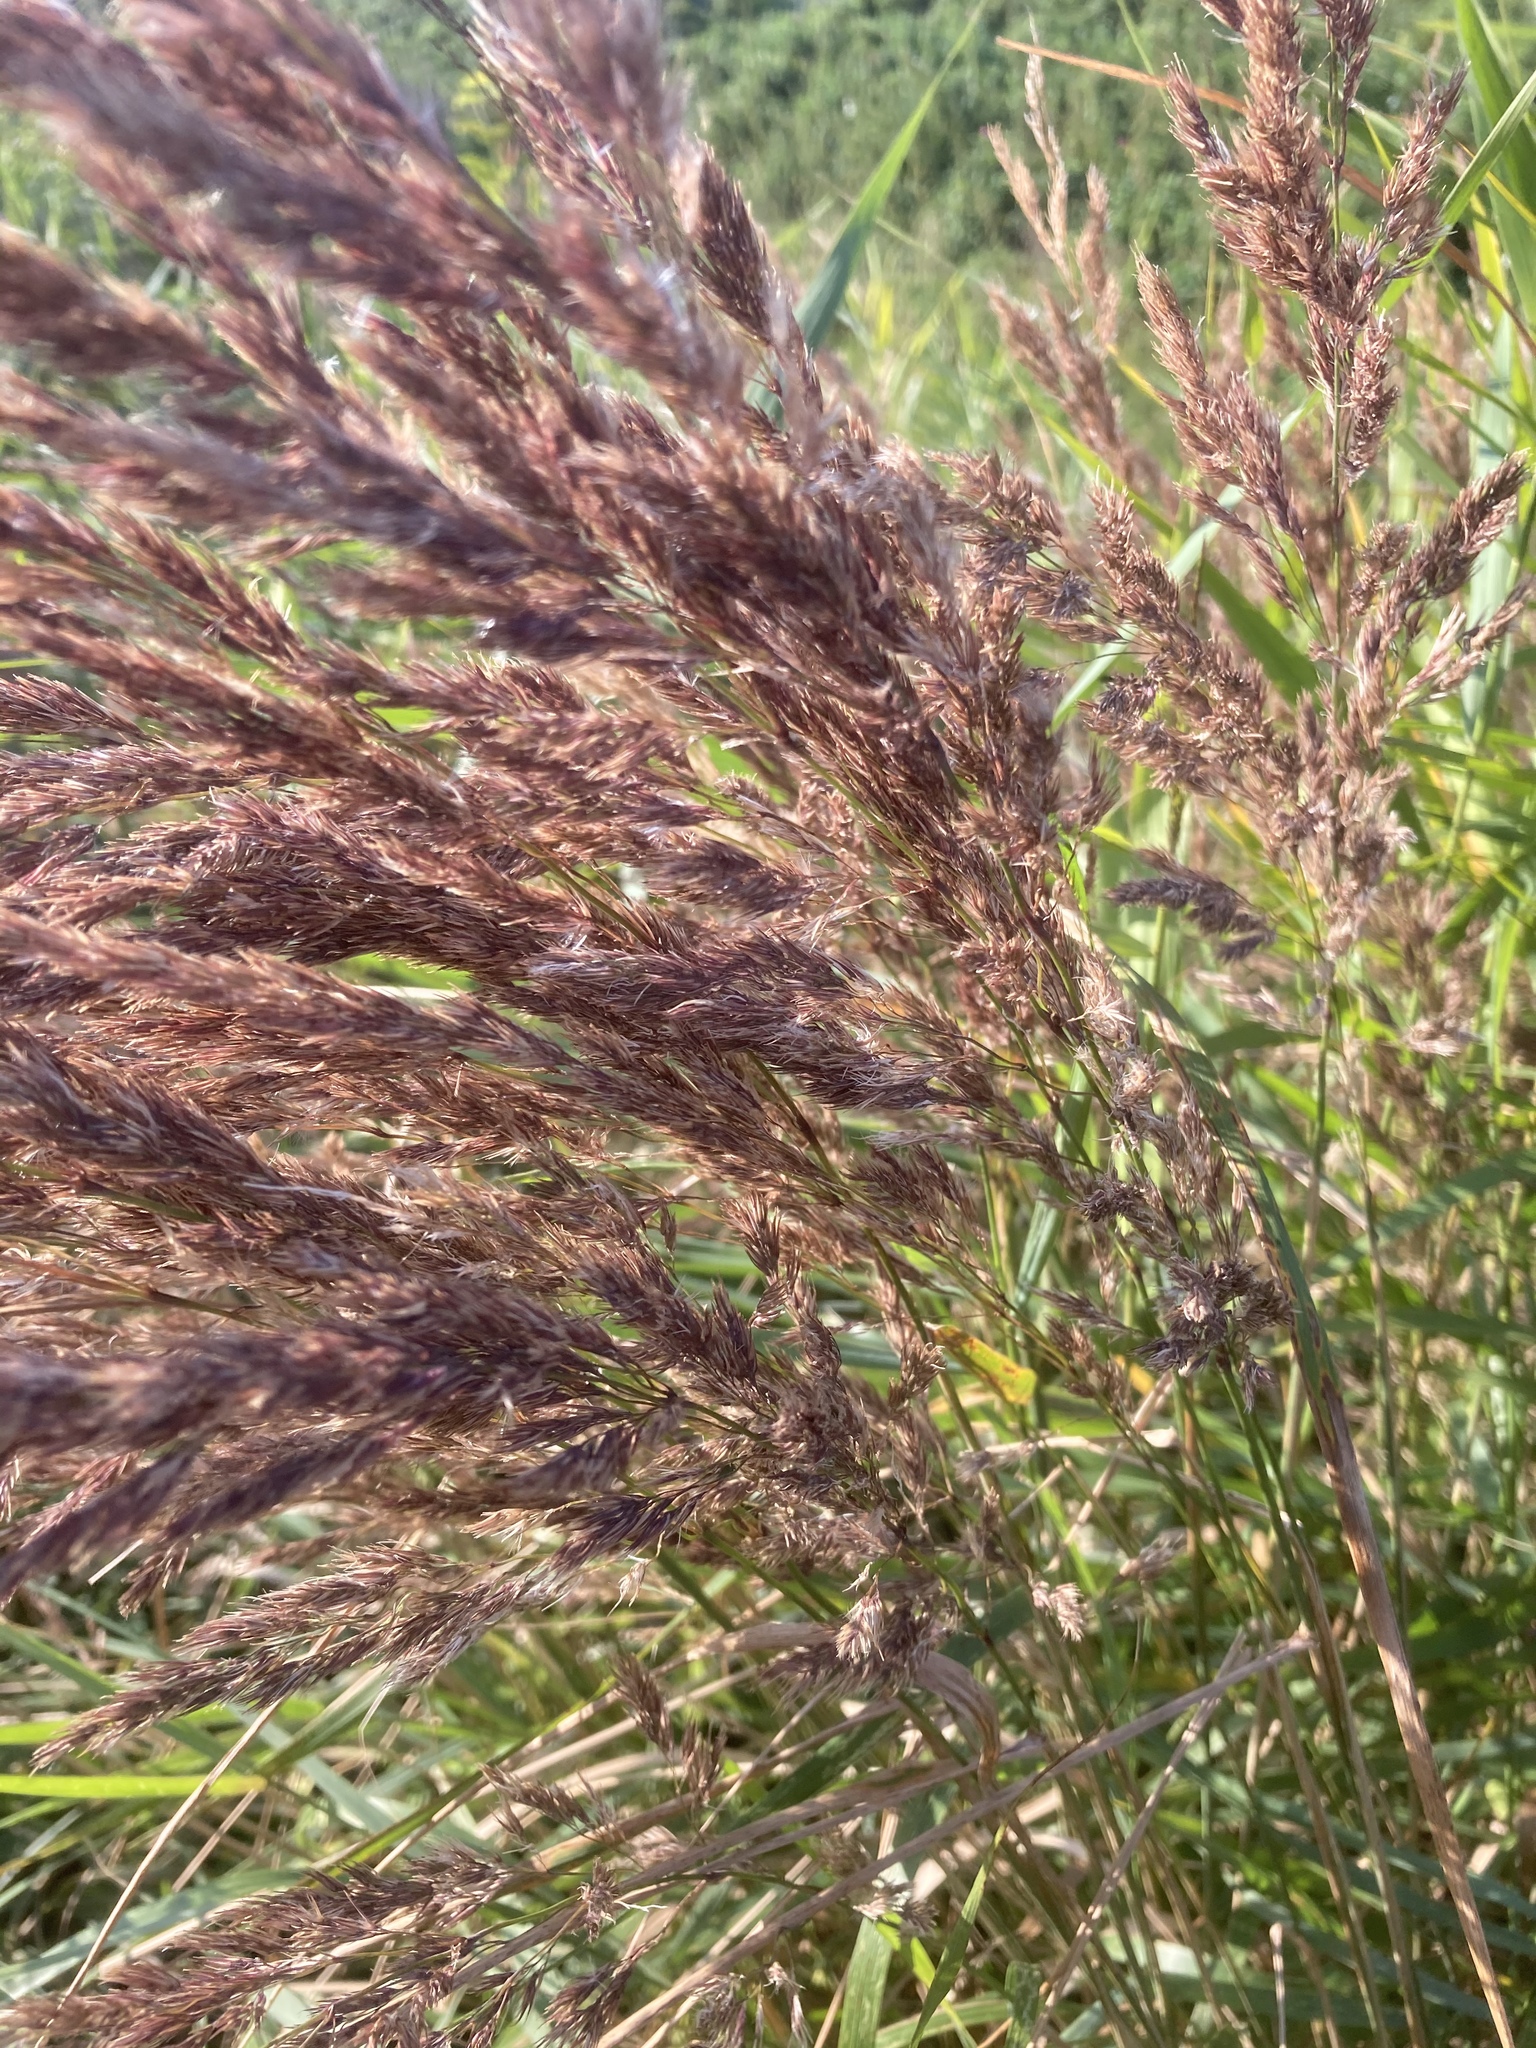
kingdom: Plantae
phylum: Tracheophyta
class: Liliopsida
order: Poales
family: Poaceae
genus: Calamagrostis
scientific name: Calamagrostis epigejos
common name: Wood small-reed
